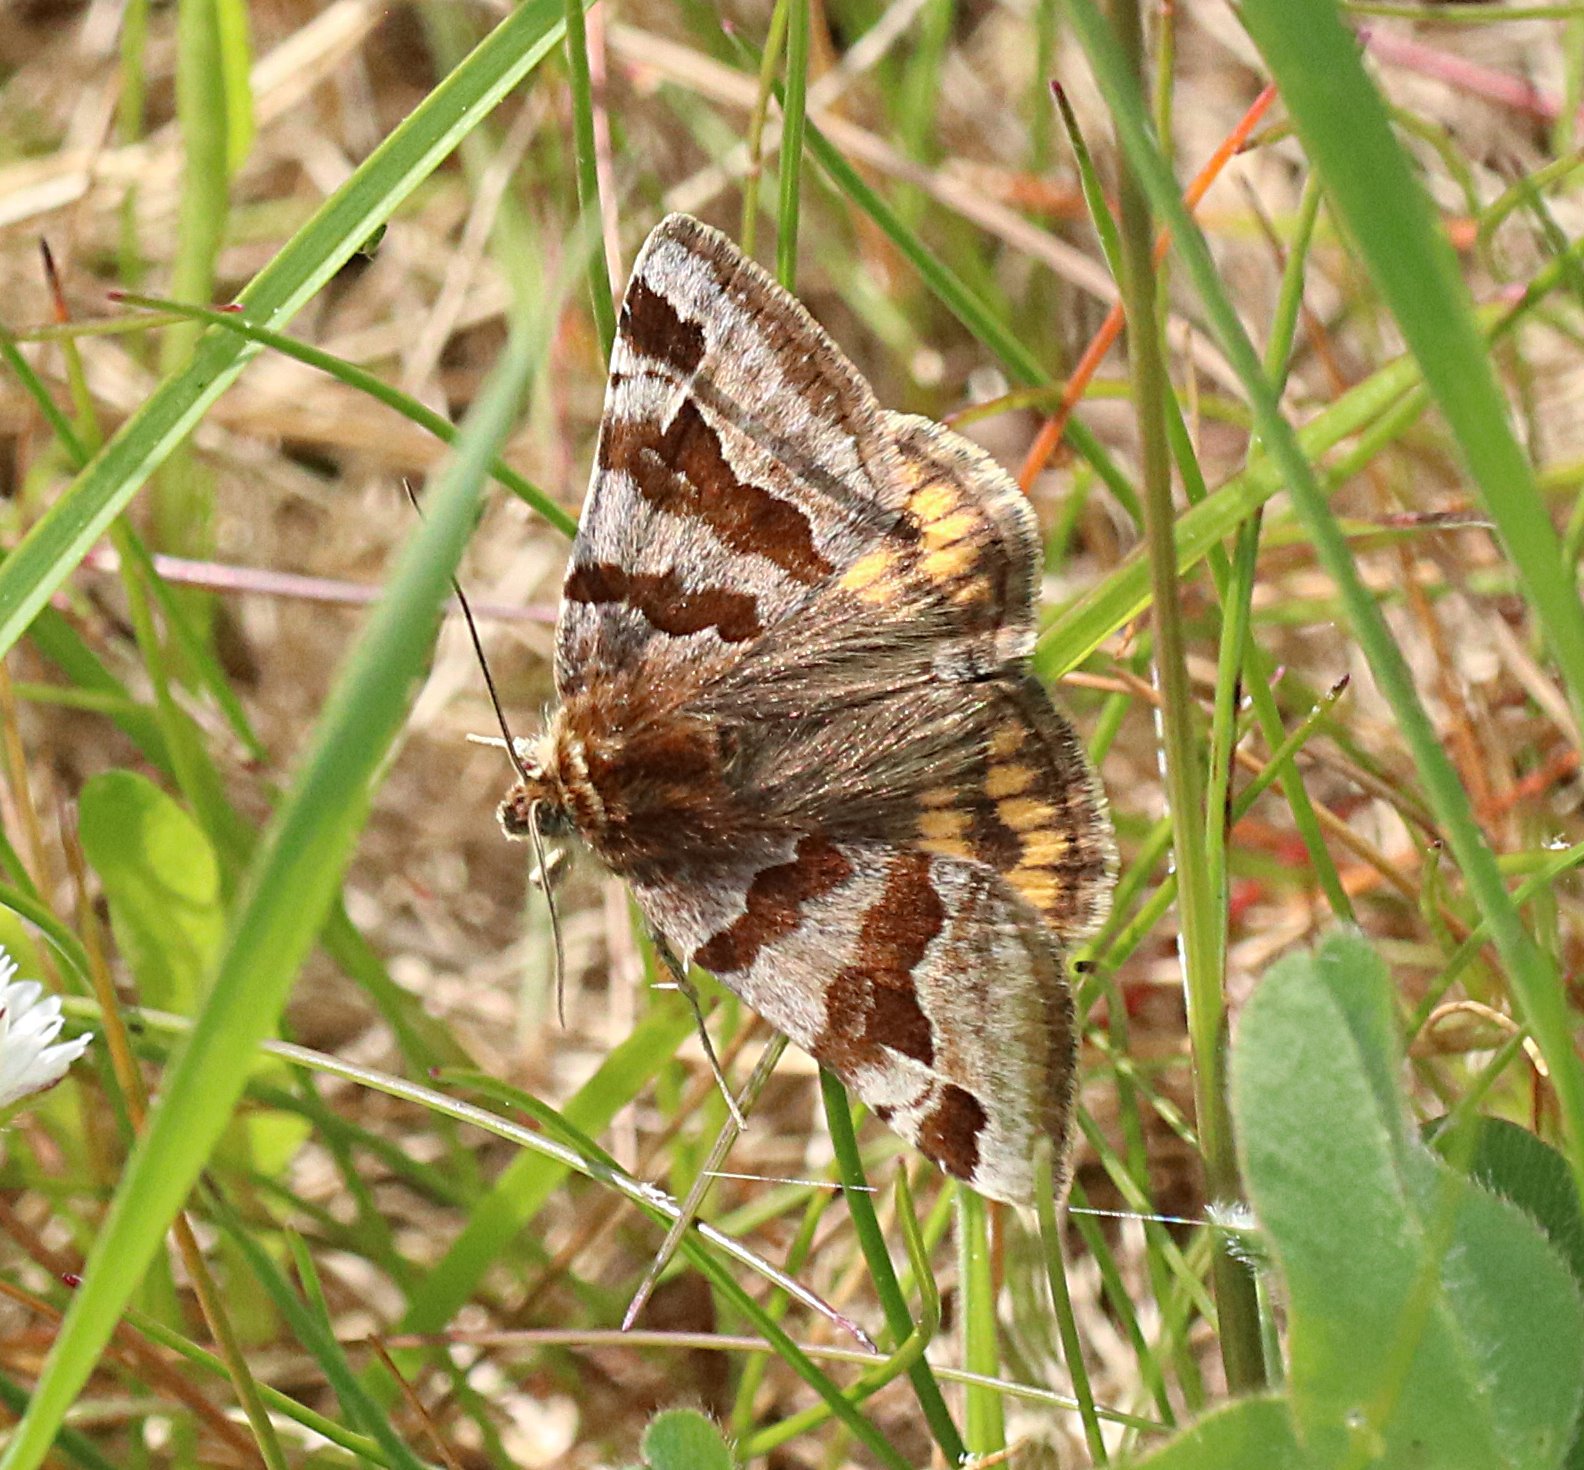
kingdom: Animalia
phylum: Arthropoda
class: Insecta
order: Lepidoptera
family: Erebidae
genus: Euclidia
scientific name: Euclidia glyphica
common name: Burnet companion
